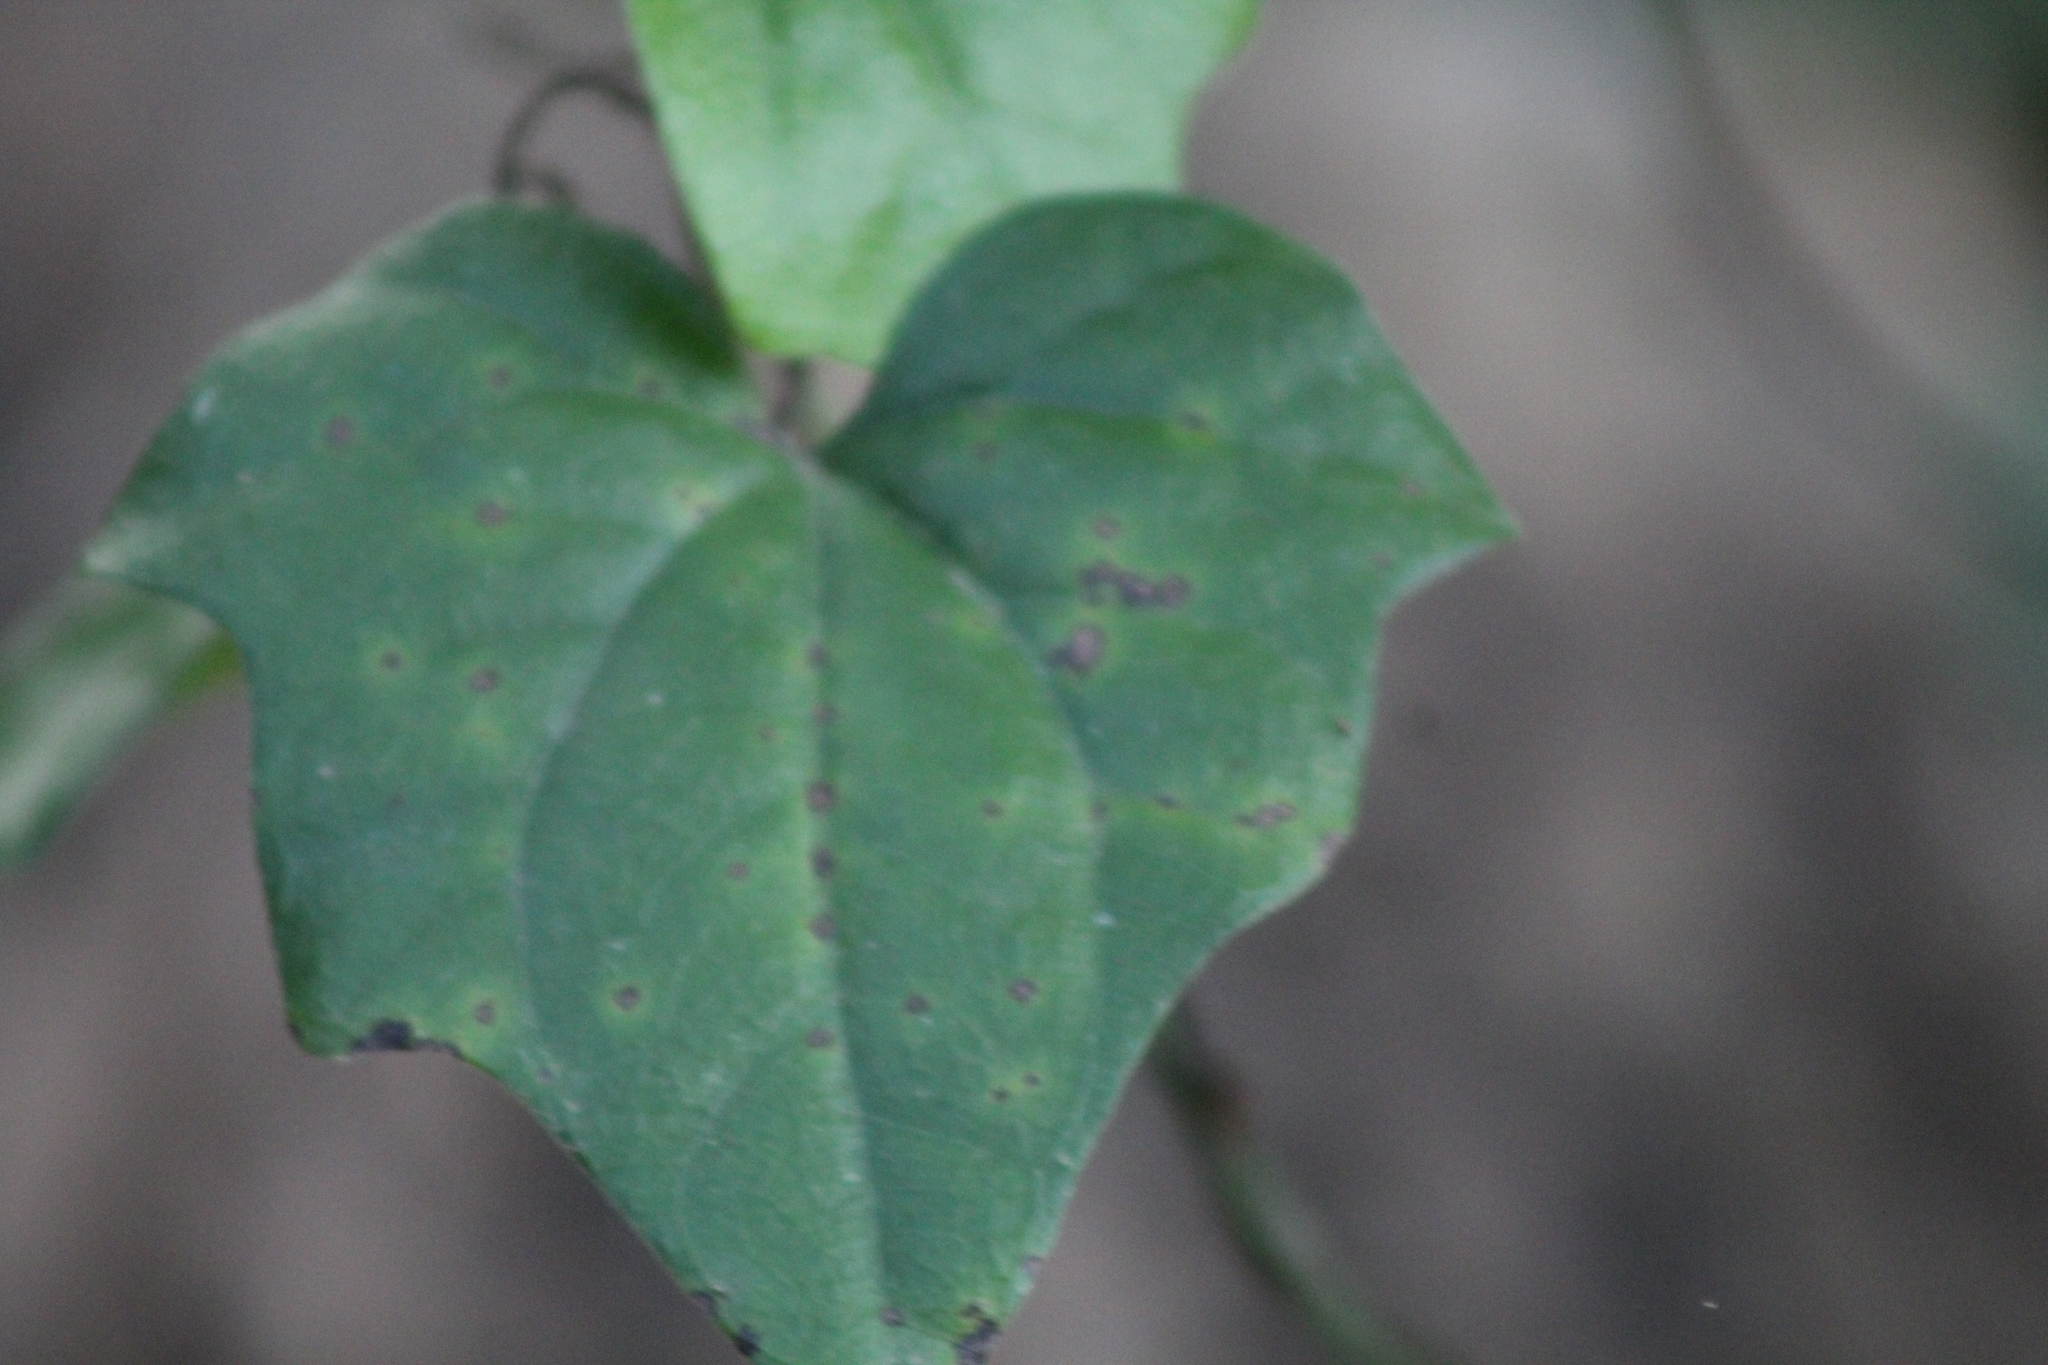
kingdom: Plantae
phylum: Tracheophyta
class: Magnoliopsida
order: Ranunculales
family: Menispermaceae
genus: Cocculus
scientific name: Cocculus carolinus
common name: Carolina moonseed
